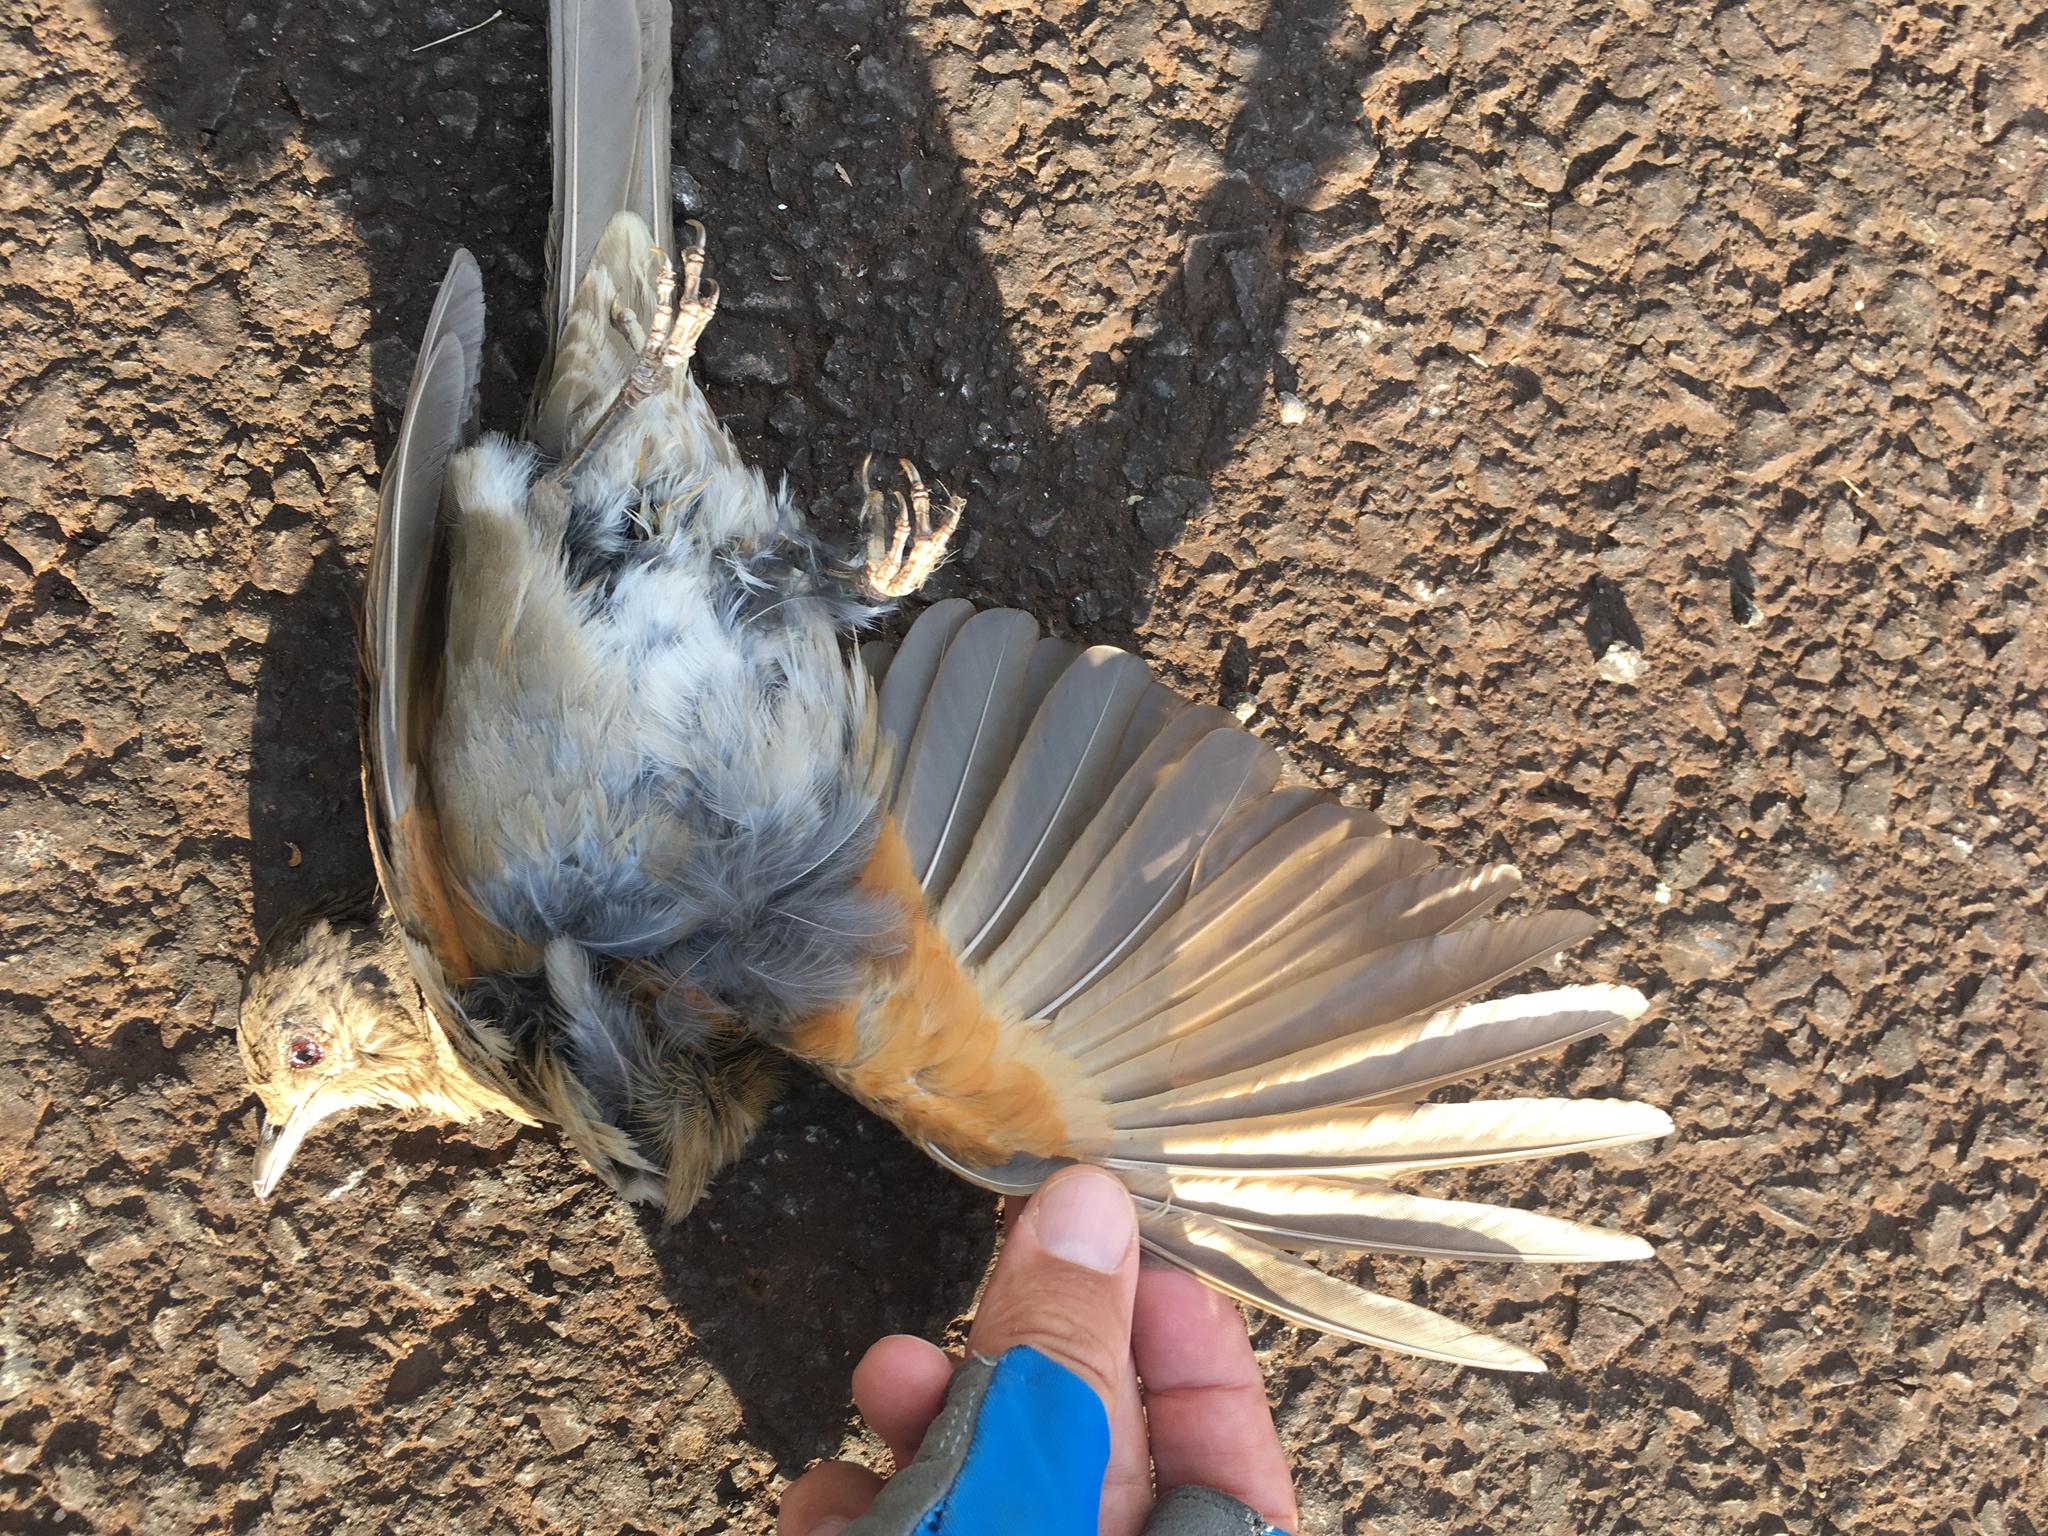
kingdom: Animalia
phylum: Chordata
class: Aves
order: Passeriformes
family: Turdidae
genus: Turdus
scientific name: Turdus leucomelas
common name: Pale-breasted thrush
